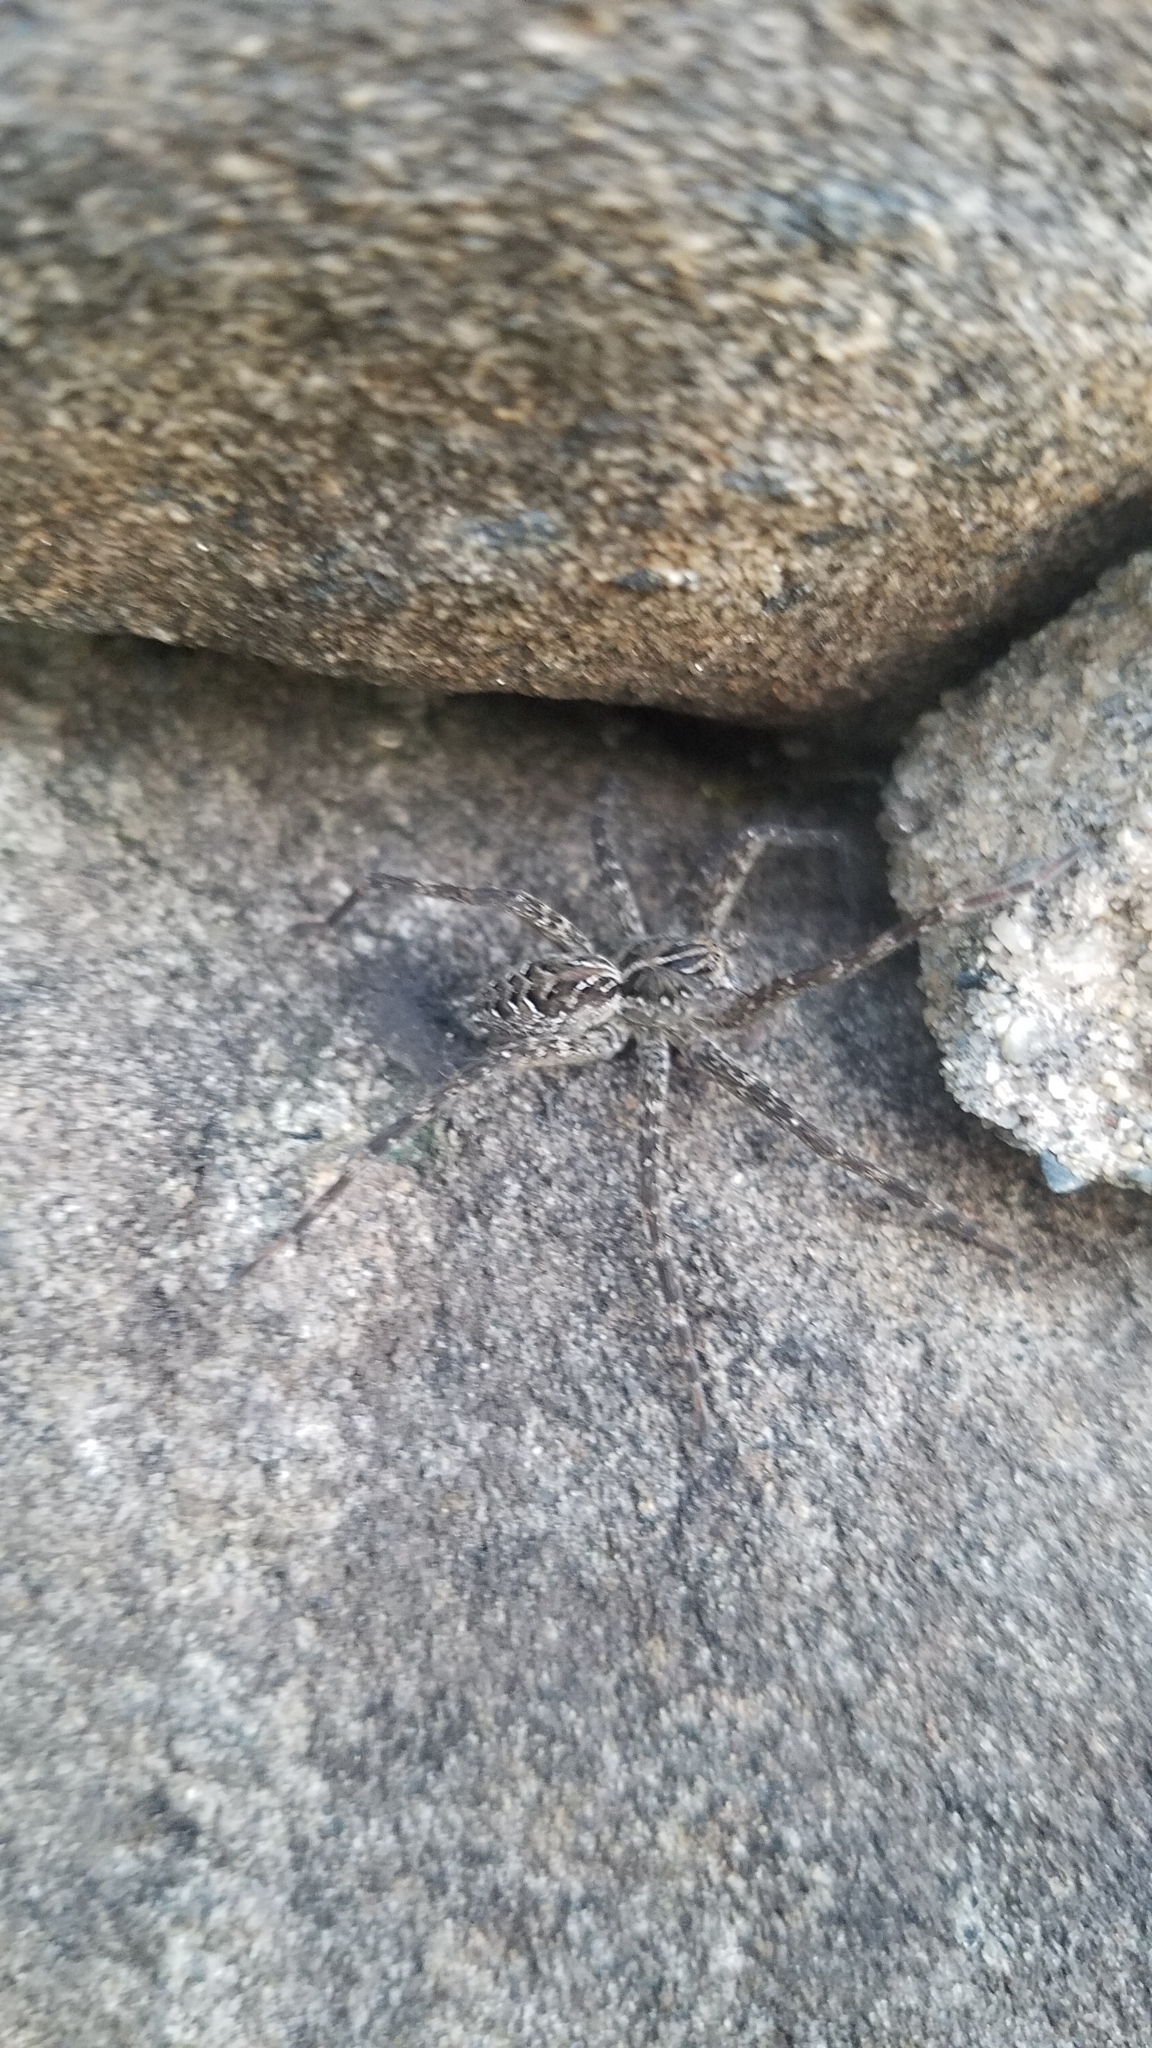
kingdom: Animalia
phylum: Arthropoda
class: Arachnida
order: Araneae
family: Pisauridae
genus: Dolomedes
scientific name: Dolomedes scriptus
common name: Striped fishing spider
